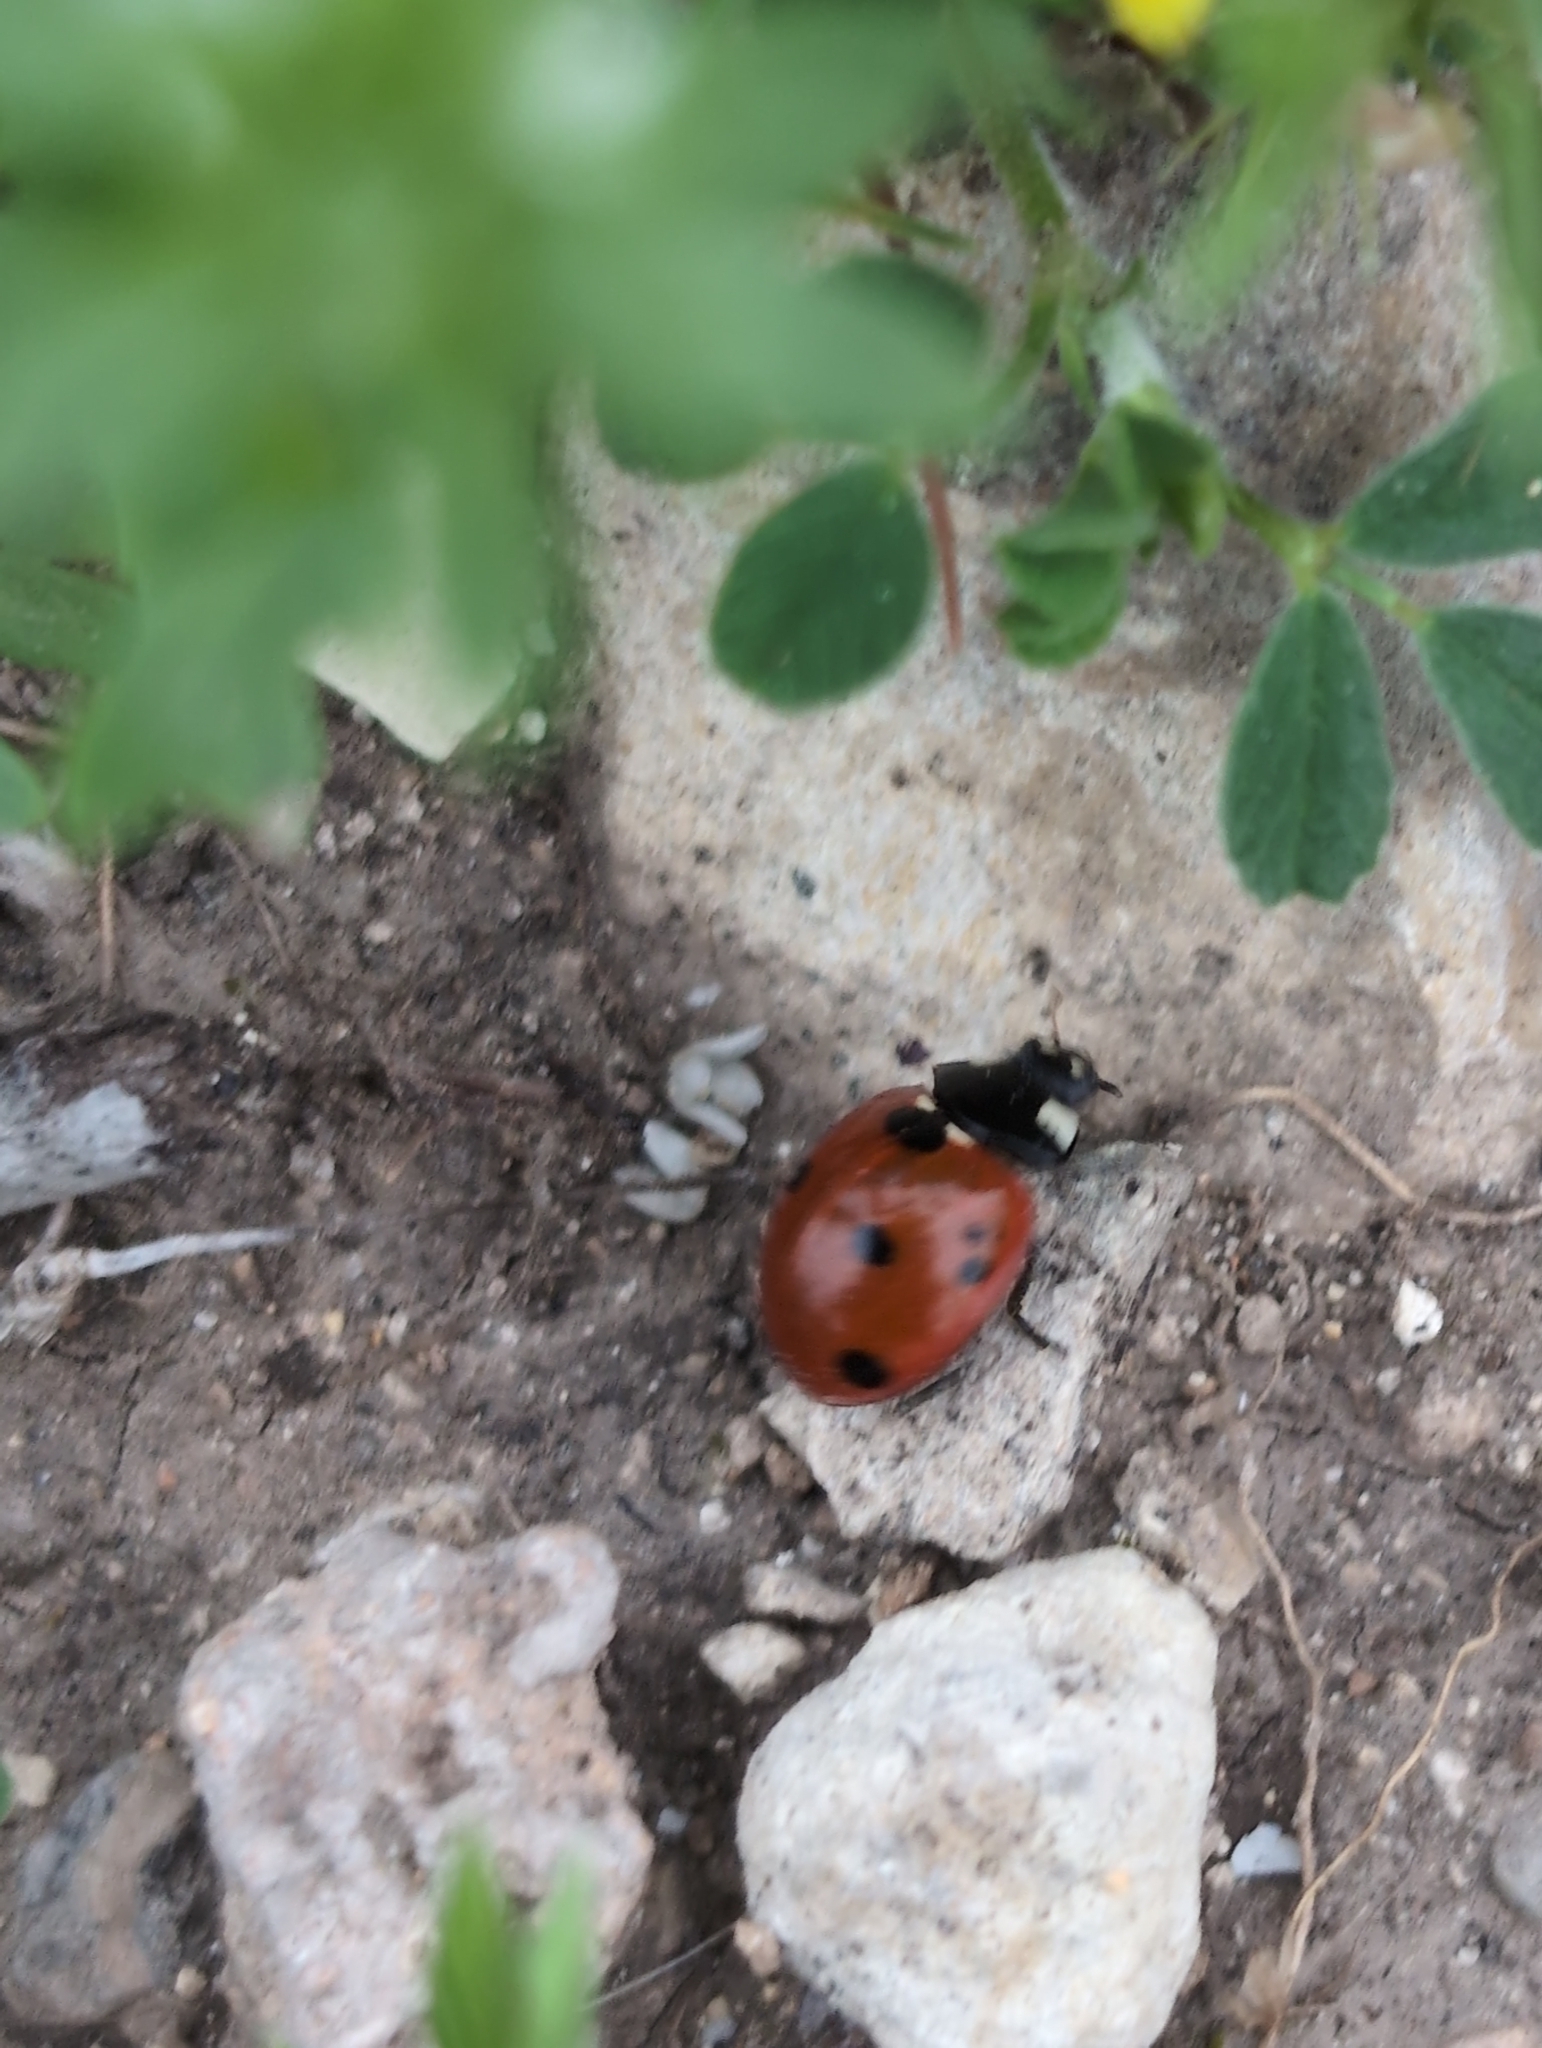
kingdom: Animalia
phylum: Arthropoda
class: Insecta
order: Coleoptera
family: Coccinellidae
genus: Coccinella
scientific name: Coccinella septempunctata
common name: Sevenspotted lady beetle
